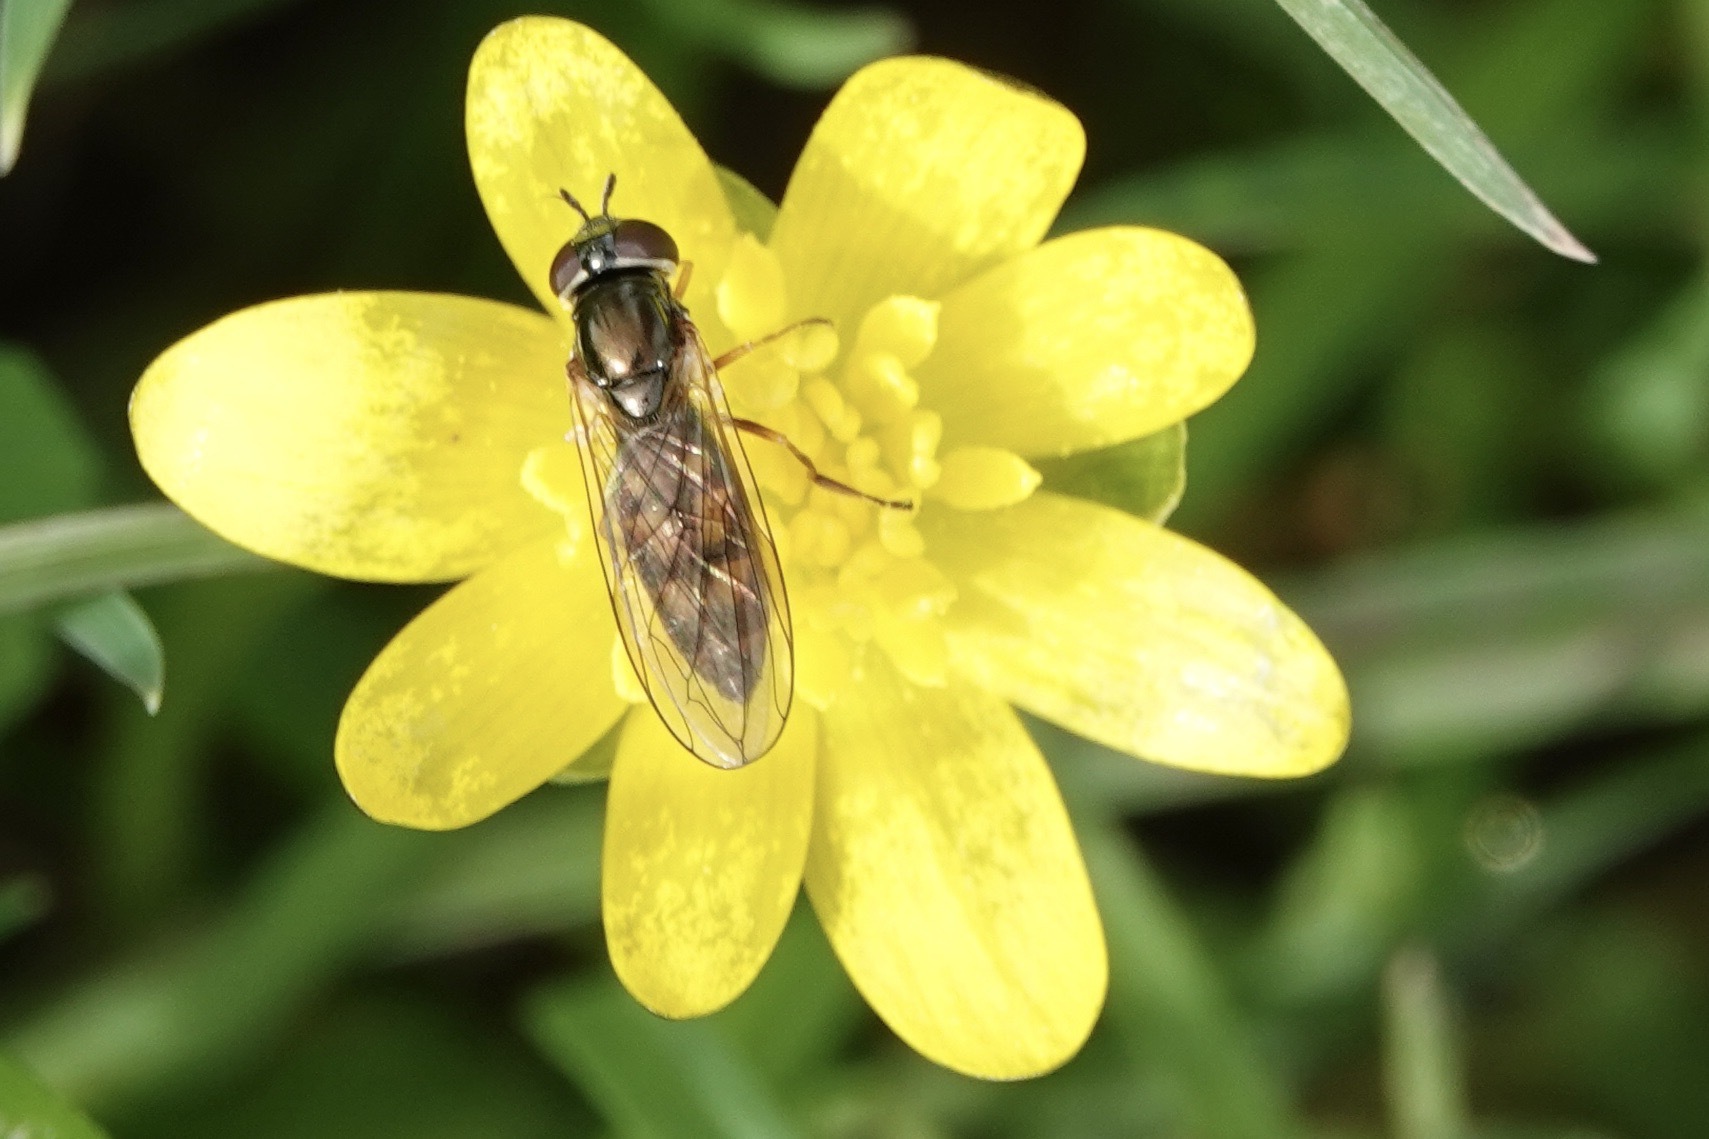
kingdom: Animalia
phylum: Arthropoda
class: Insecta
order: Diptera
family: Syrphidae
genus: Melanostoma
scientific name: Melanostoma scalare
